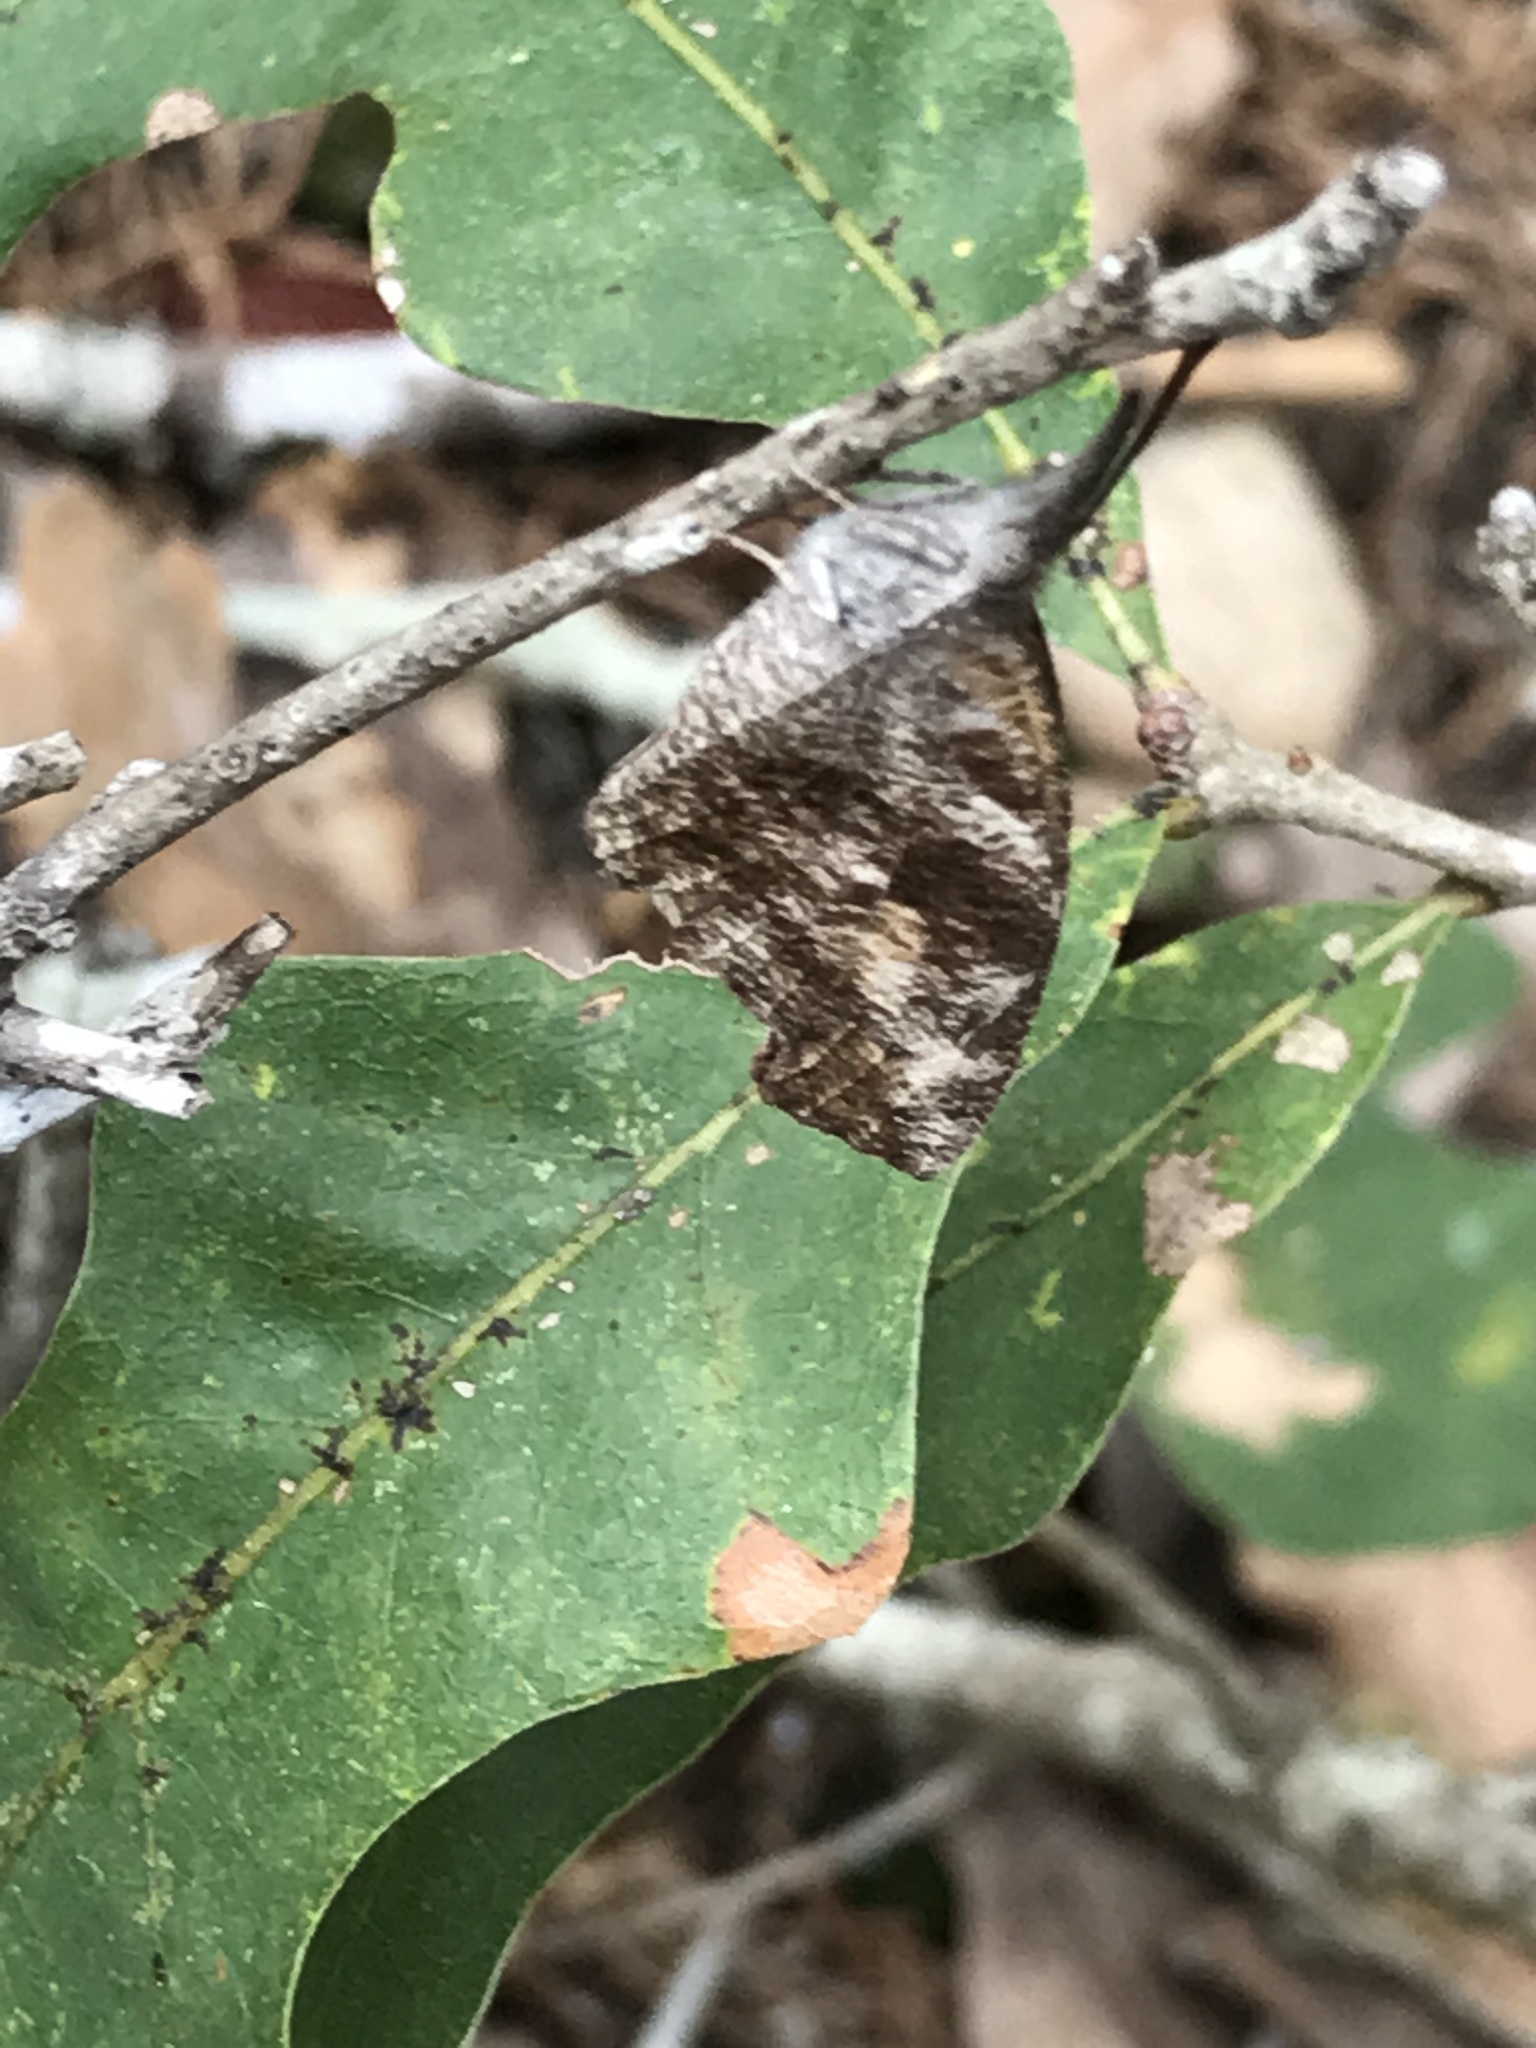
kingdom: Animalia
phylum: Arthropoda
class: Insecta
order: Lepidoptera
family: Nymphalidae
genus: Libytheana
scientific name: Libytheana carinenta
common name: American snout
